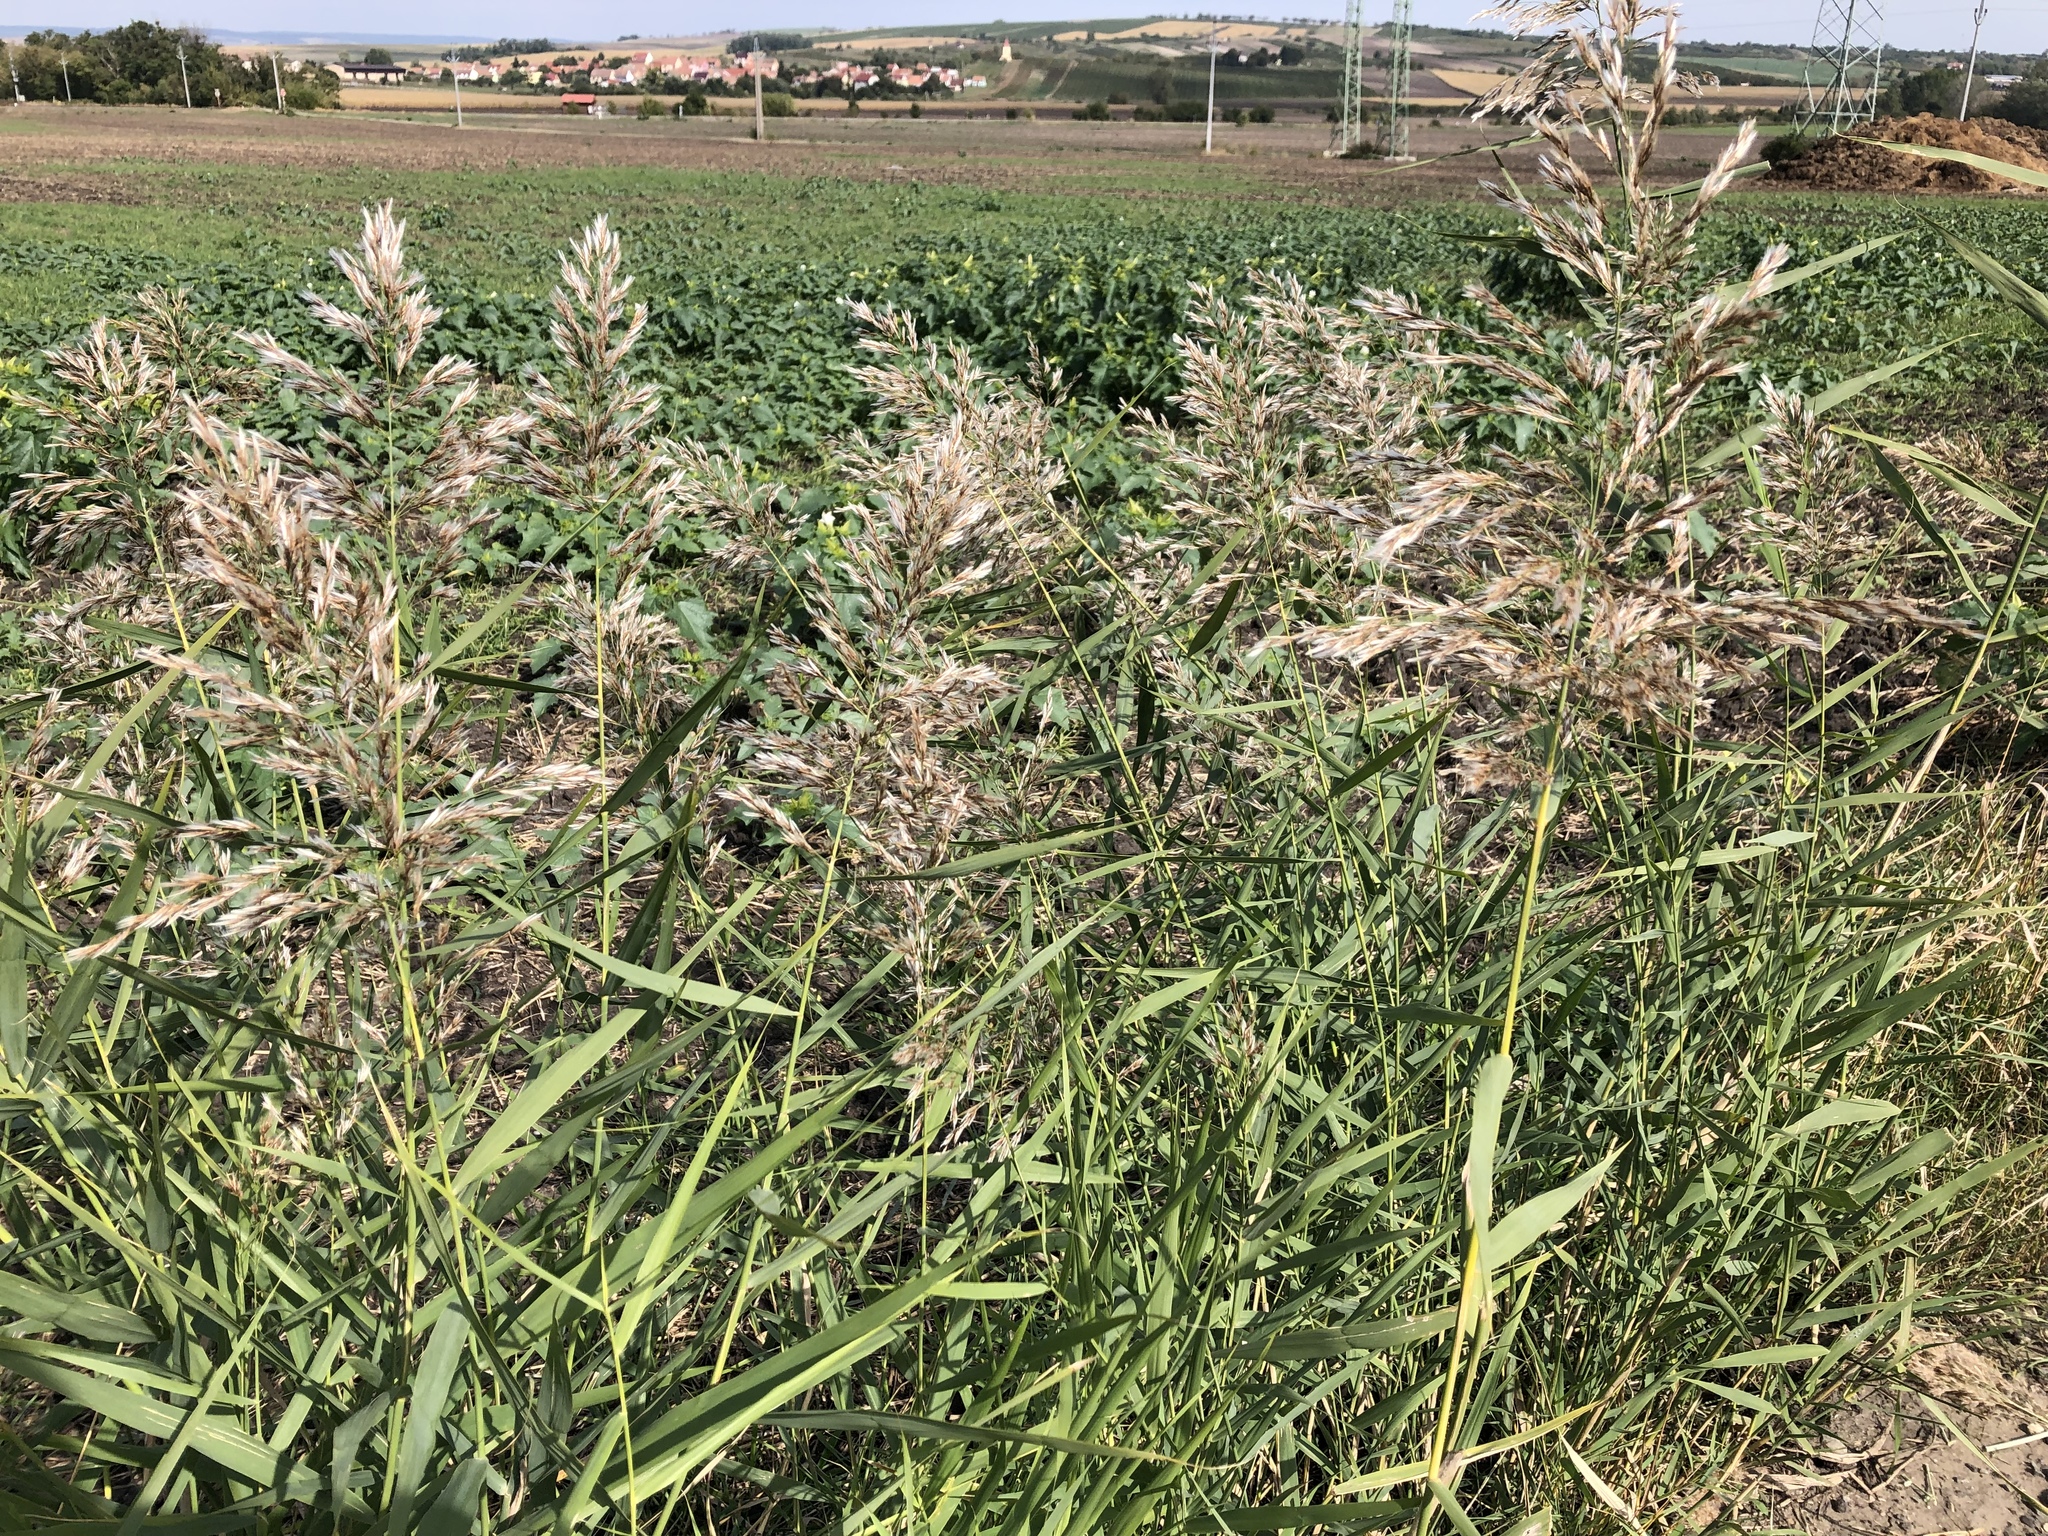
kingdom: Plantae
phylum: Tracheophyta
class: Liliopsida
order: Poales
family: Poaceae
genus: Phragmites
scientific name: Phragmites australis
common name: Common reed
